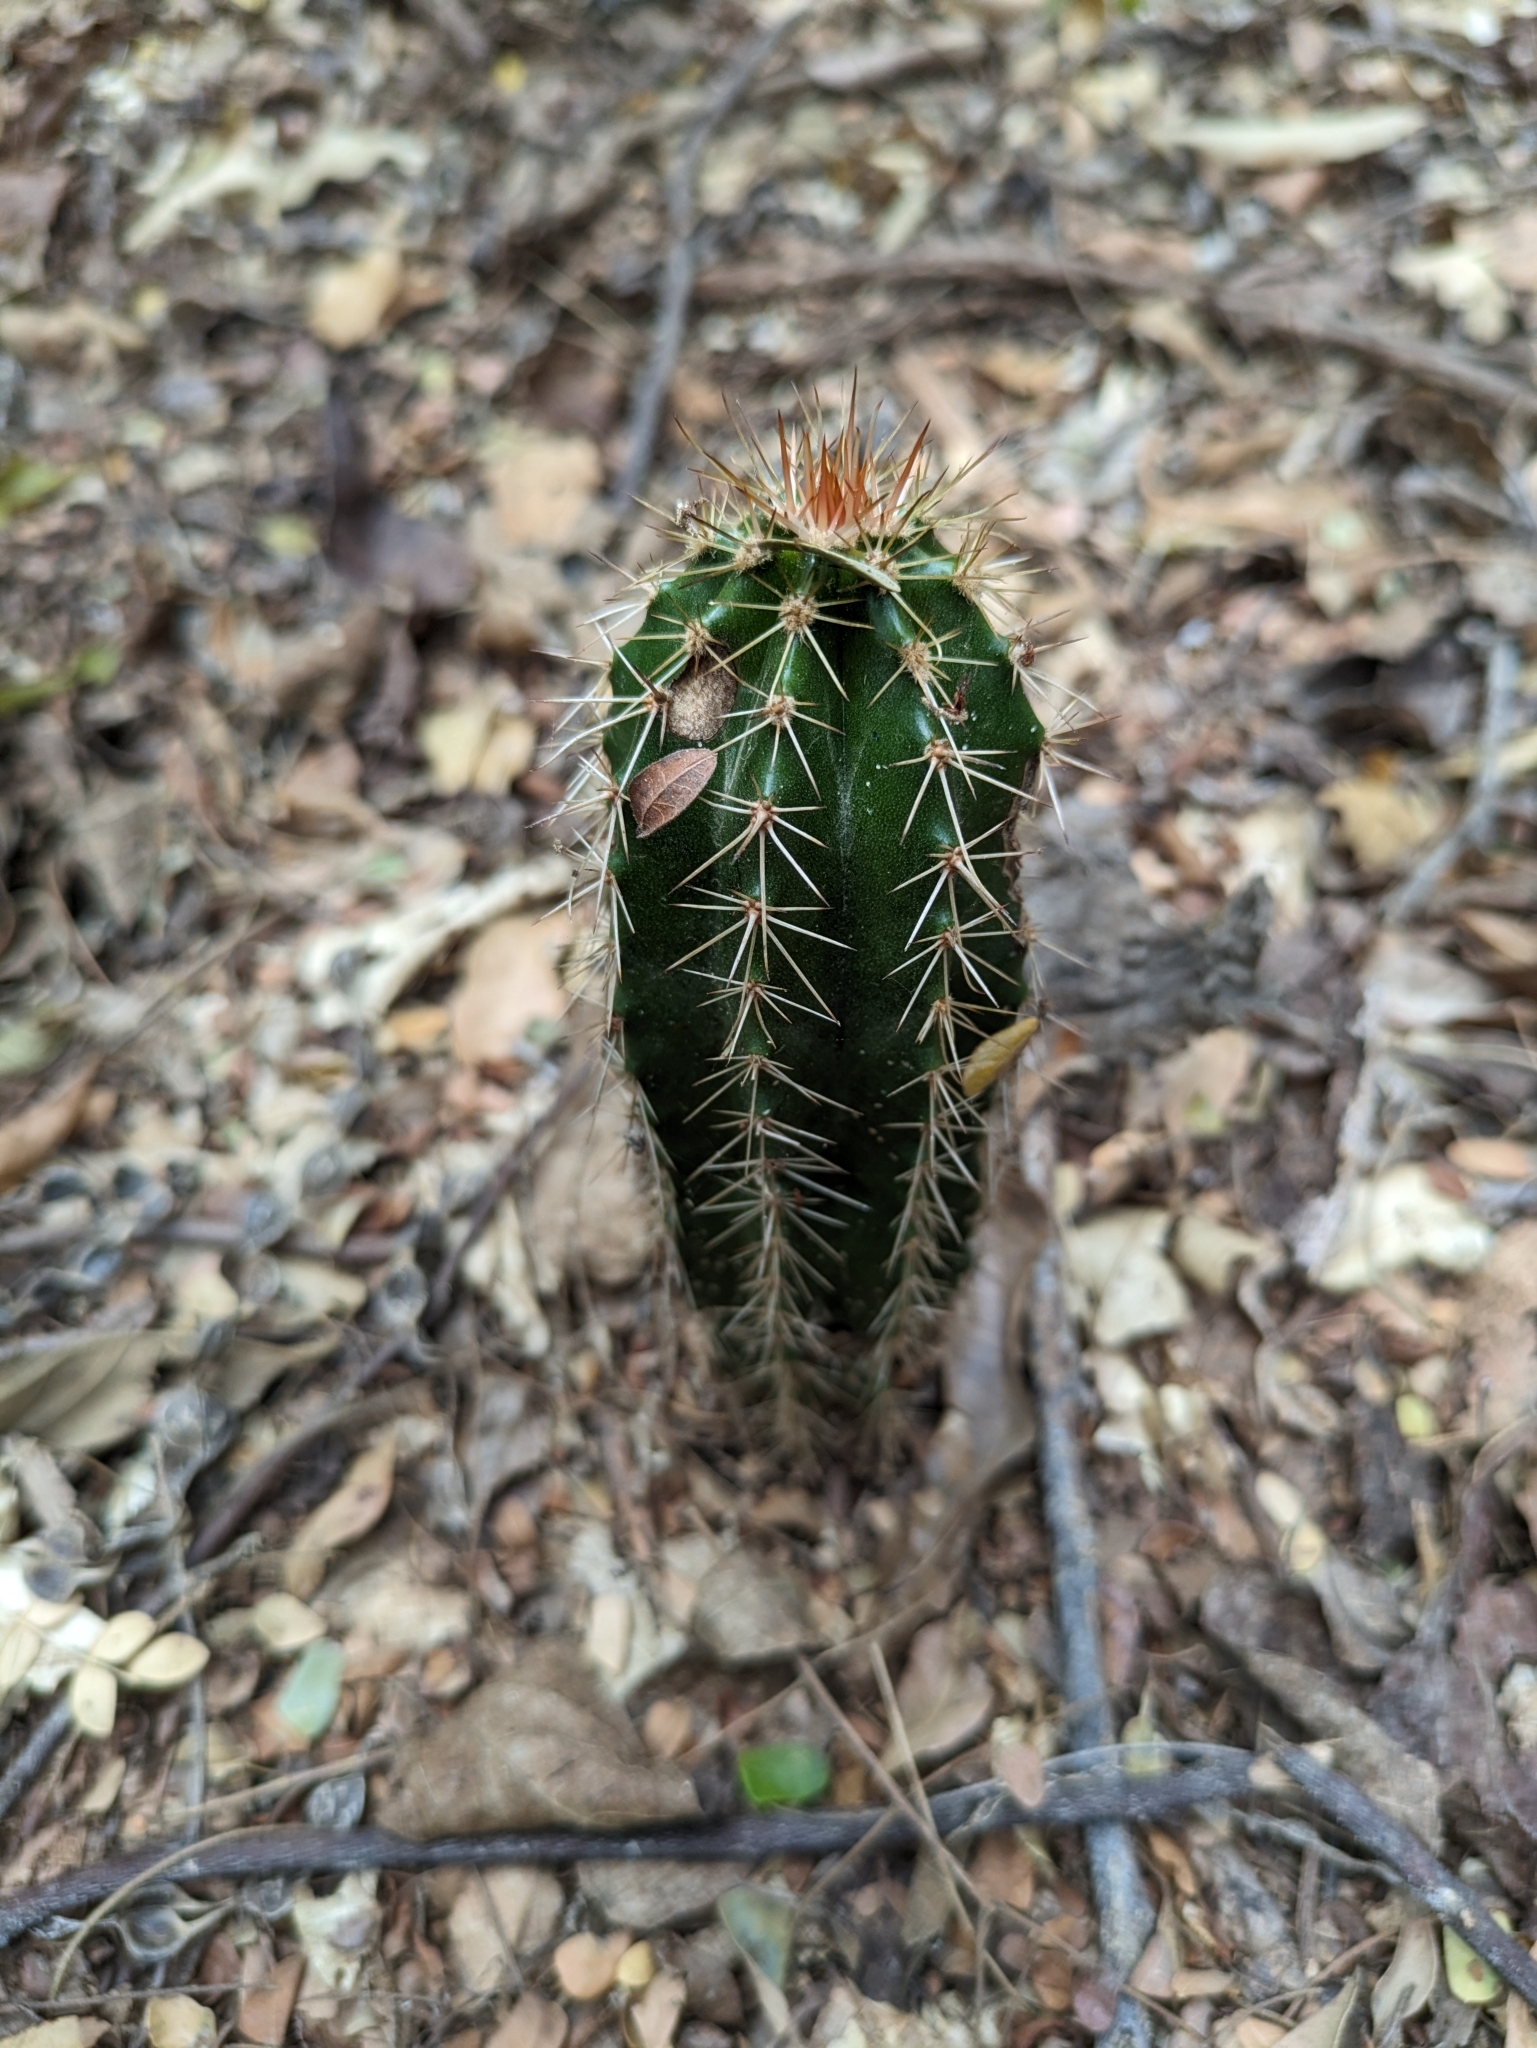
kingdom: Plantae
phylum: Tracheophyta
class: Magnoliopsida
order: Caryophyllales
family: Cactaceae
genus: Pachycereus
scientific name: Pachycereus pecten-aboriginum
